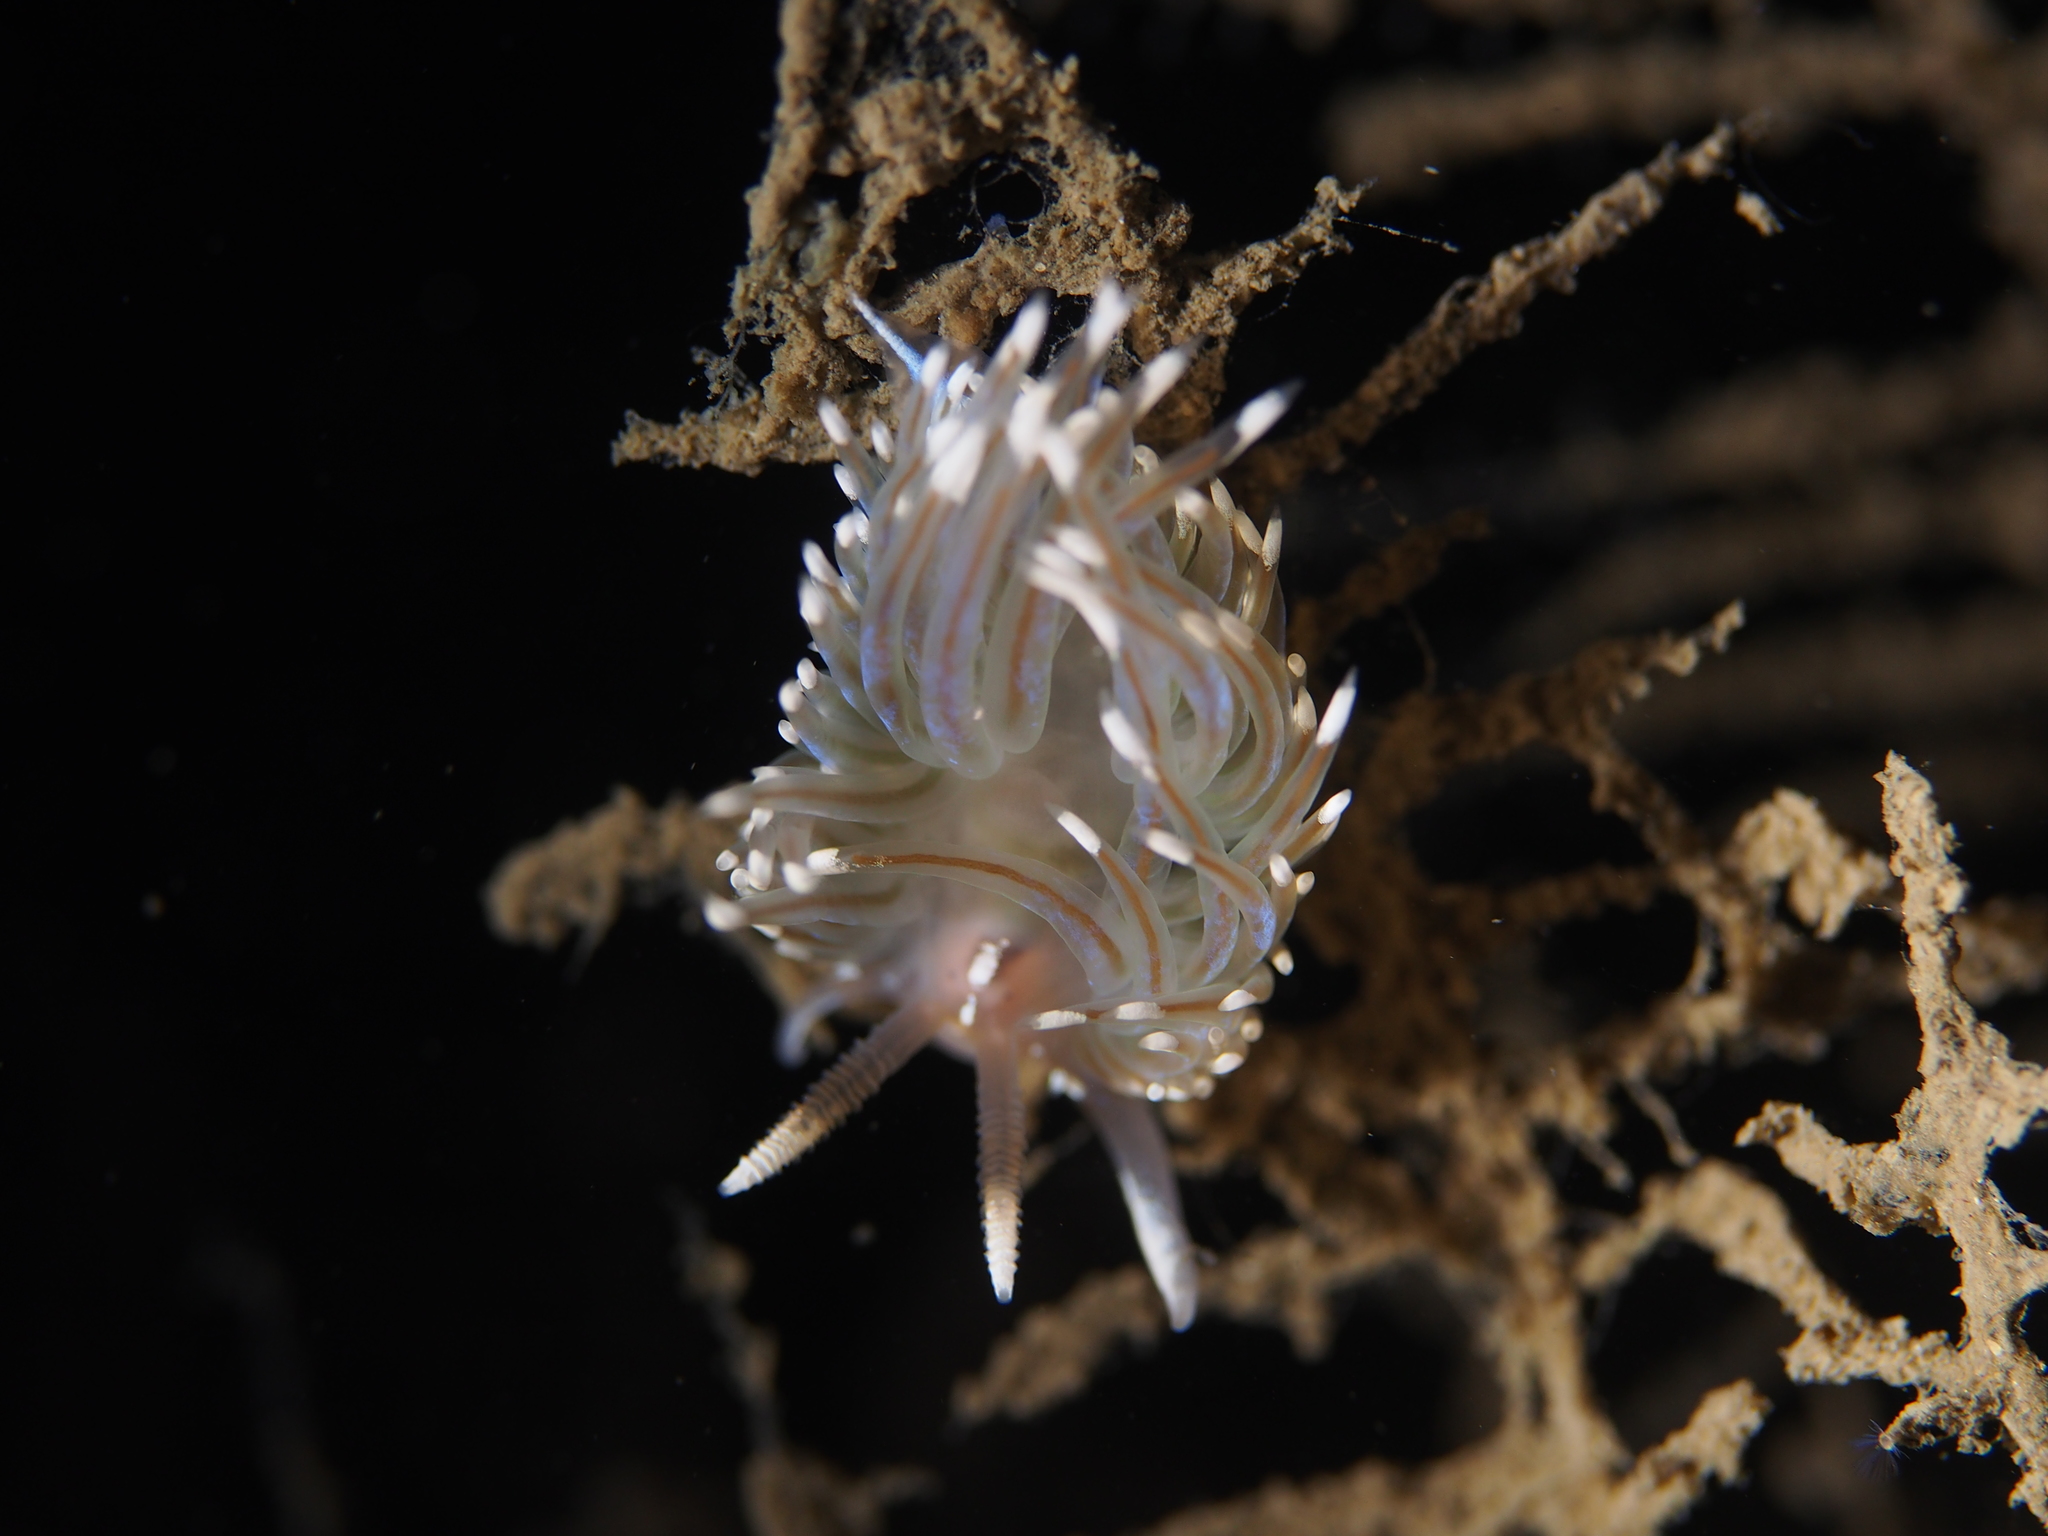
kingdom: Animalia
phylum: Mollusca
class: Gastropoda
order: Nudibranchia
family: Facelinidae
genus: Facelina
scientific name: Facelina auriculata
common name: Slender facelina
